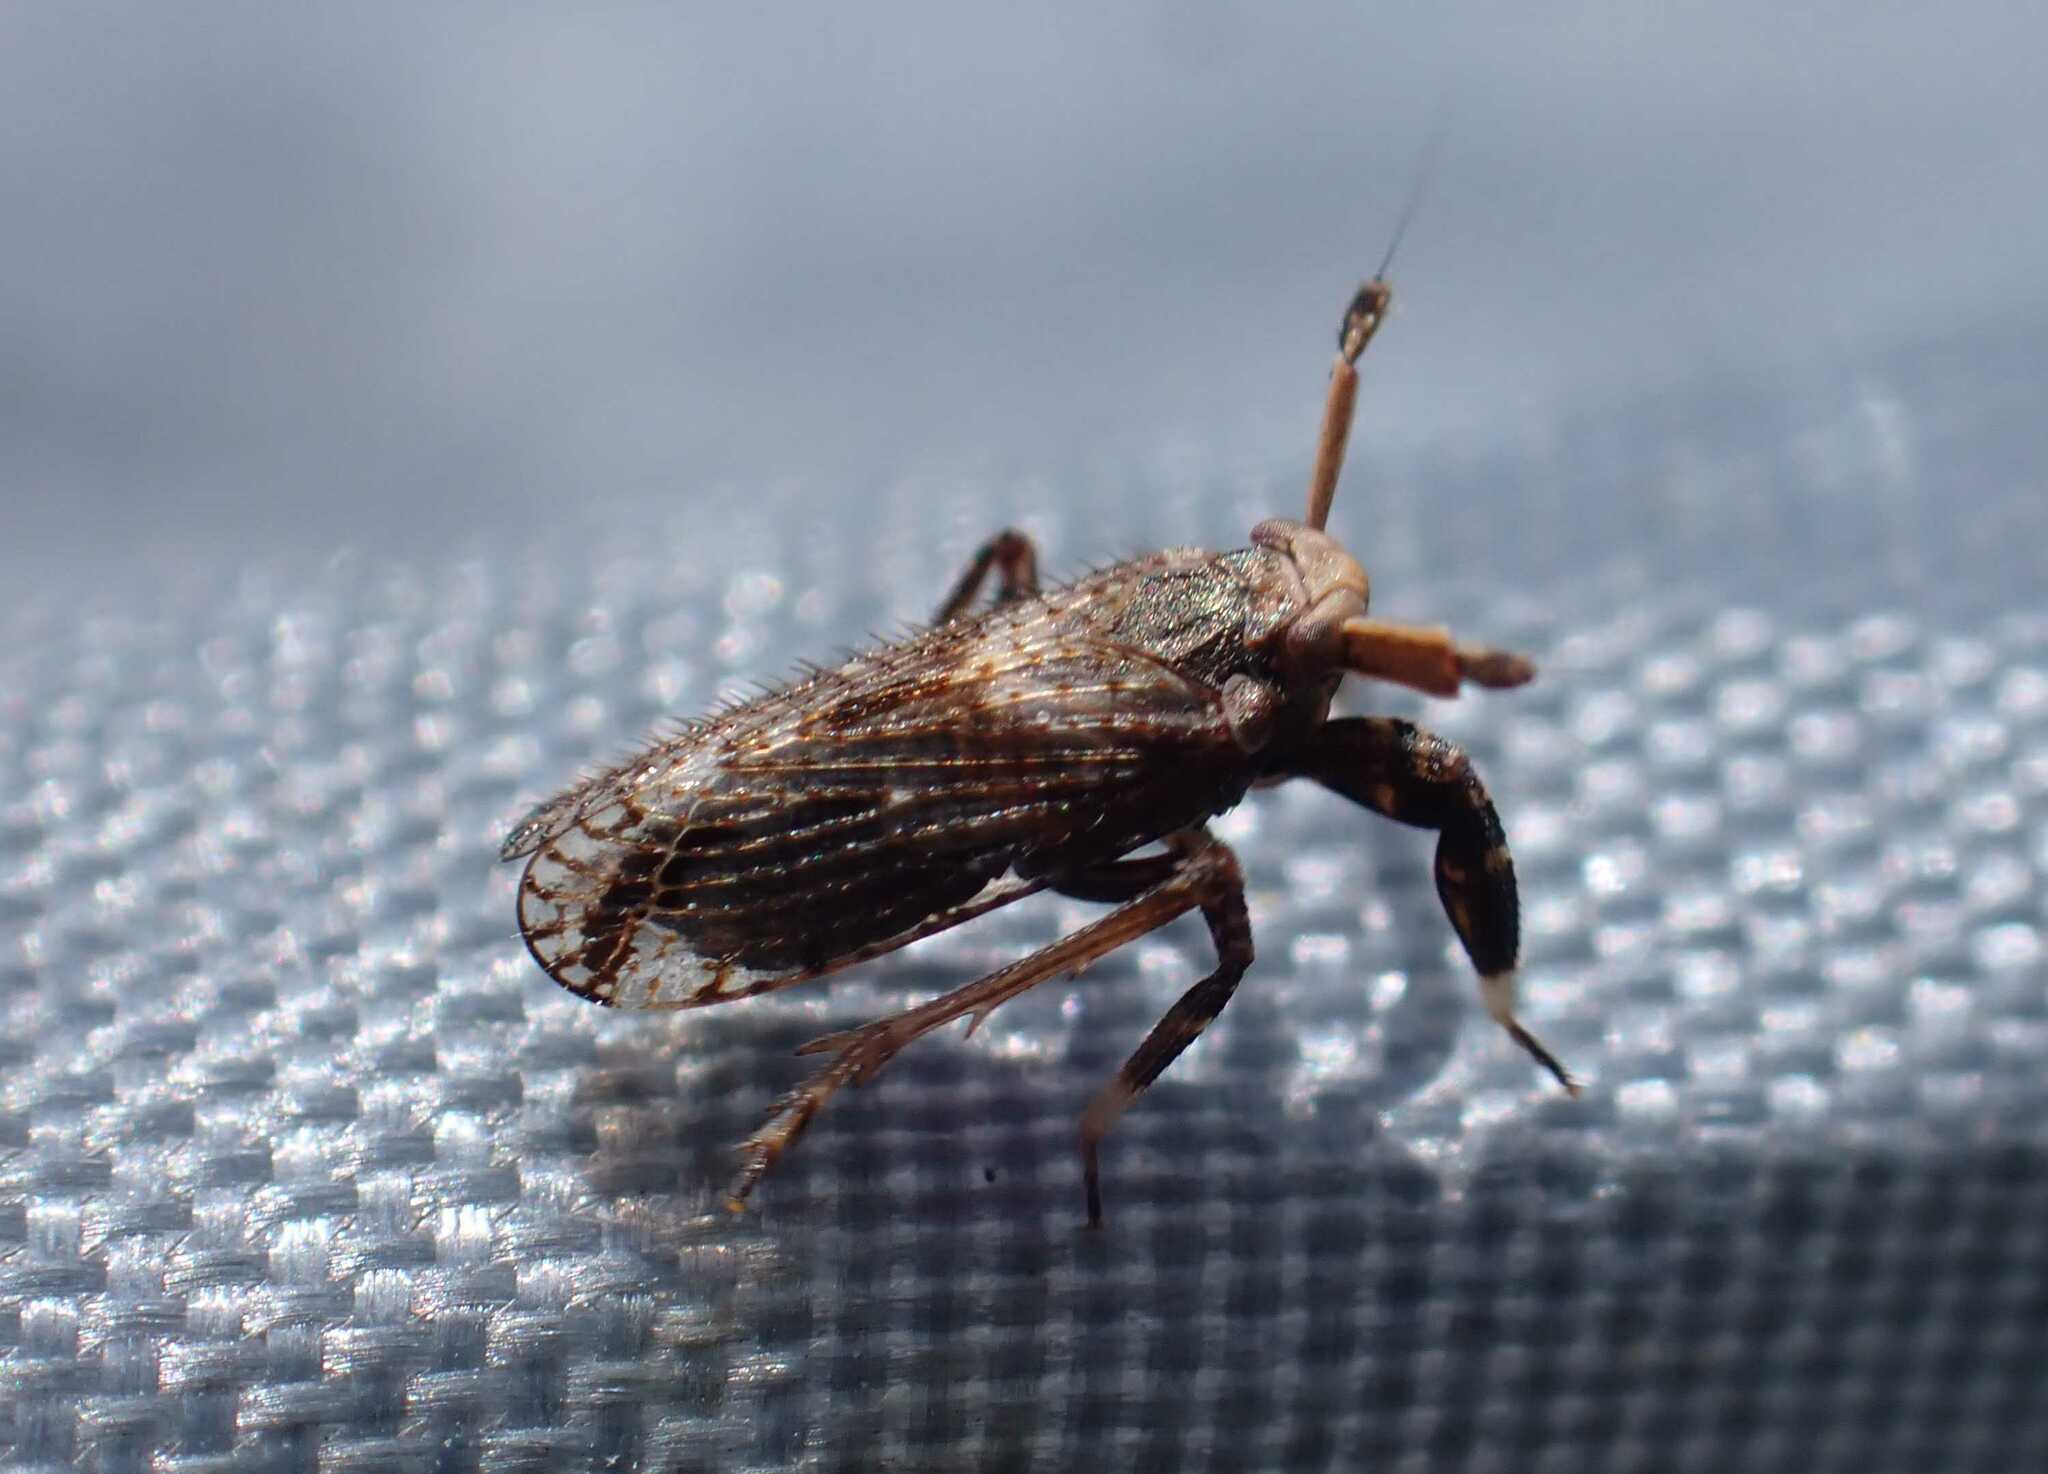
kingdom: Animalia
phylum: Arthropoda
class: Insecta
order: Hemiptera
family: Delphacidae
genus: Asiraca
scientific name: Asiraca clavicornis
